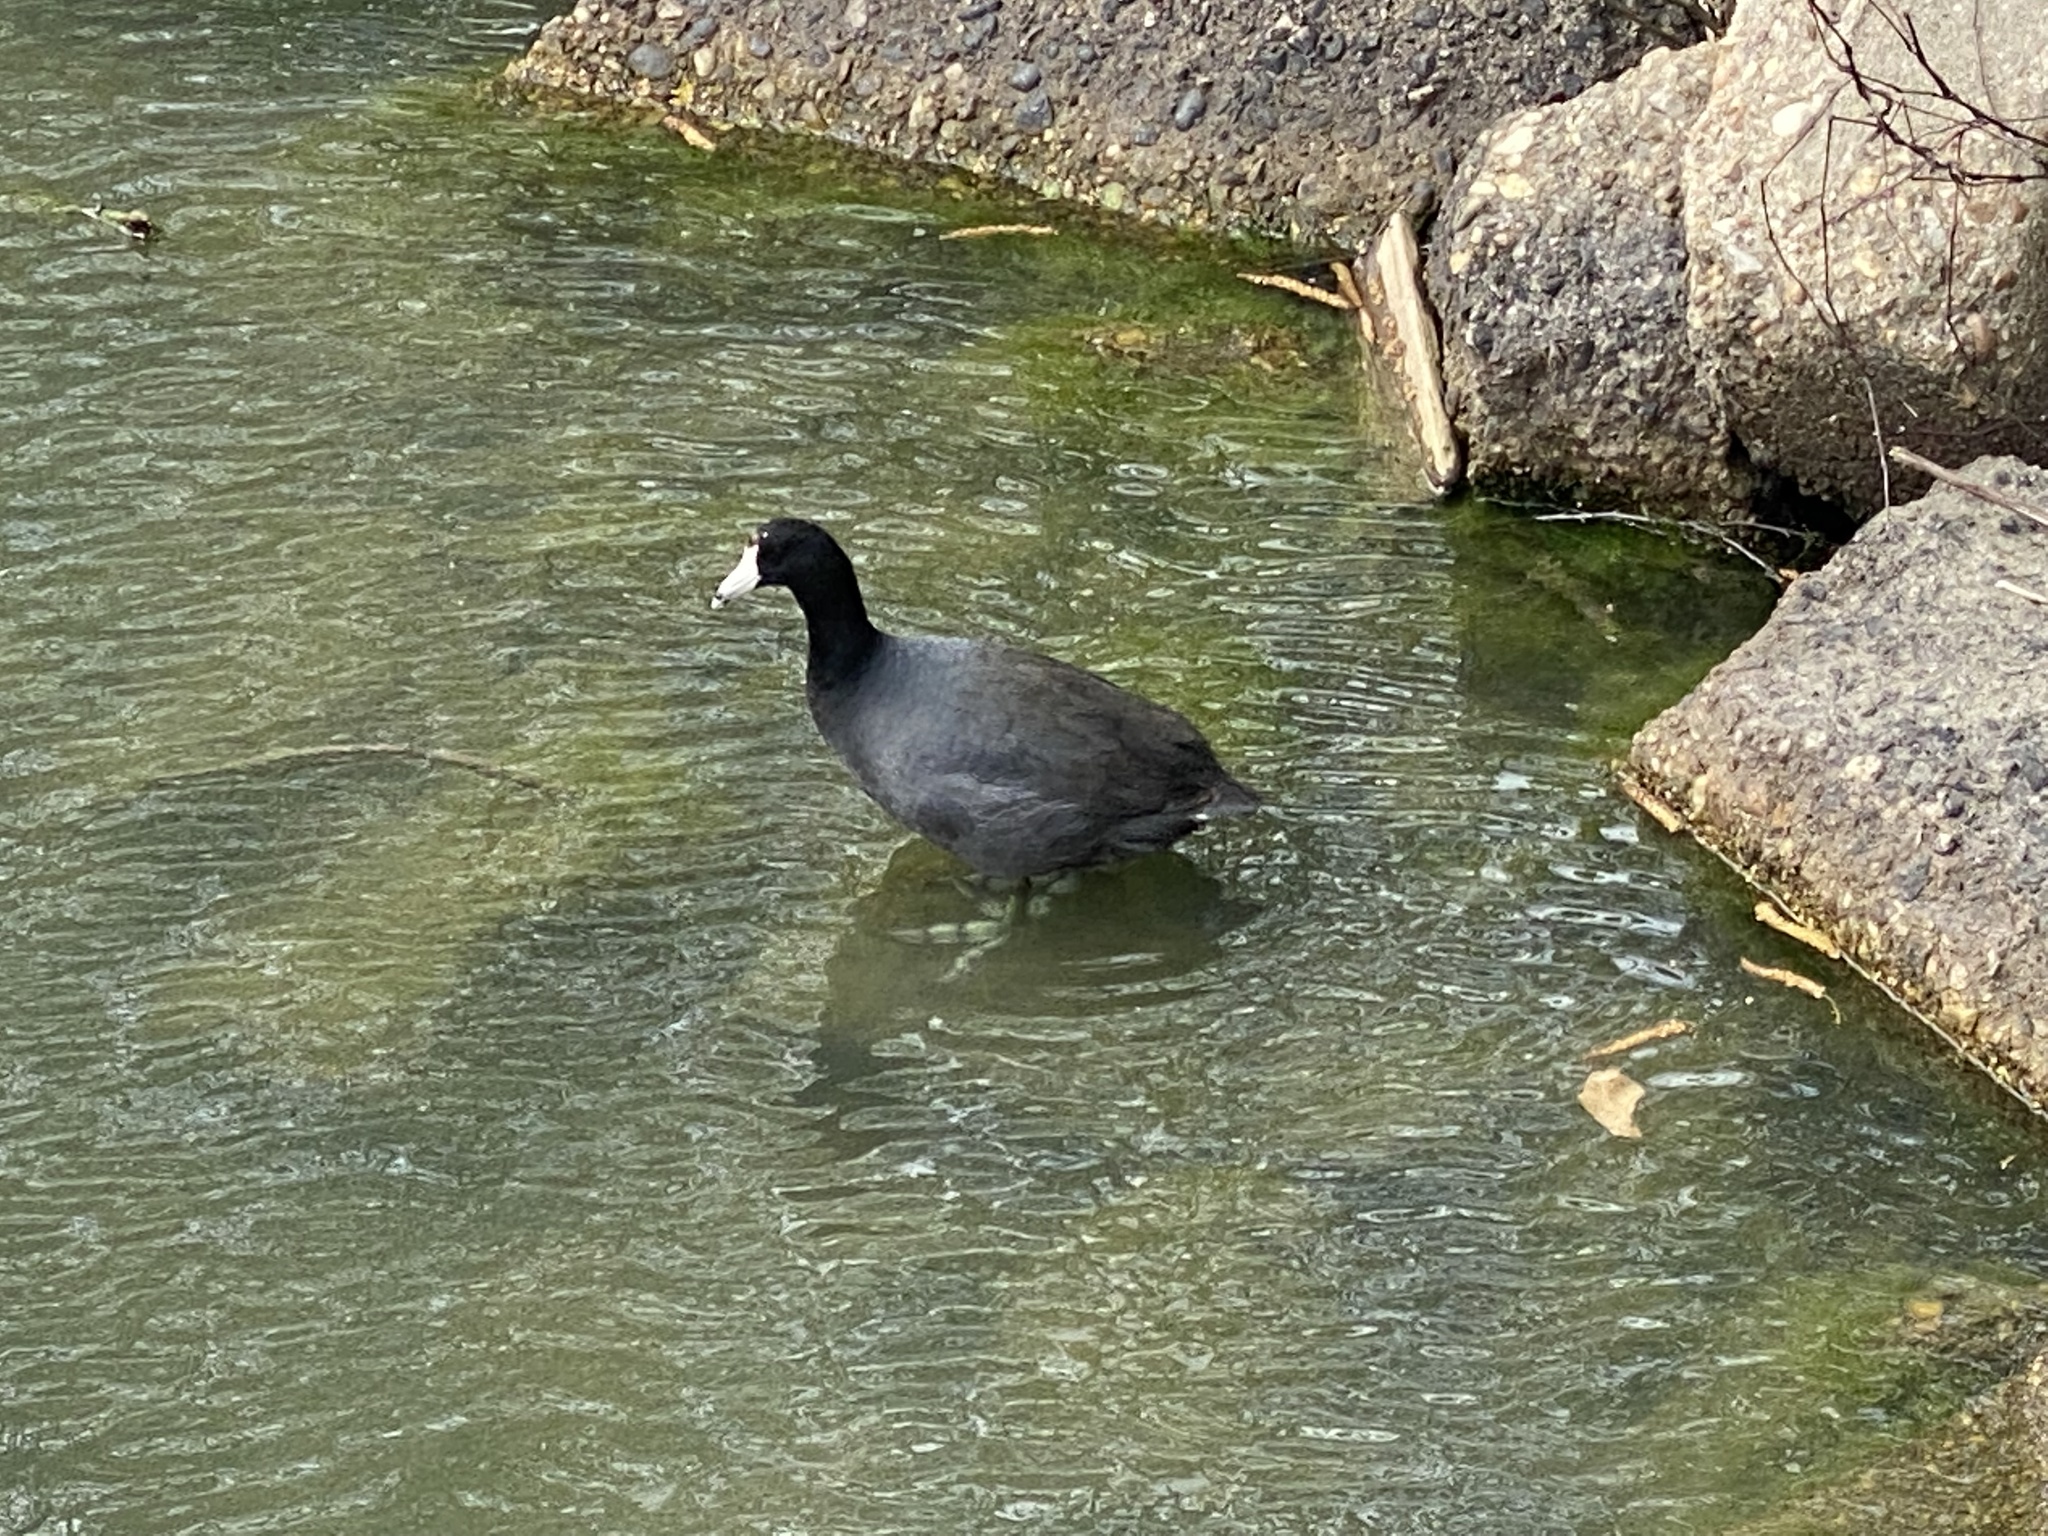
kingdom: Animalia
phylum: Chordata
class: Aves
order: Gruiformes
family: Rallidae
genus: Fulica
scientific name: Fulica americana
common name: American coot
